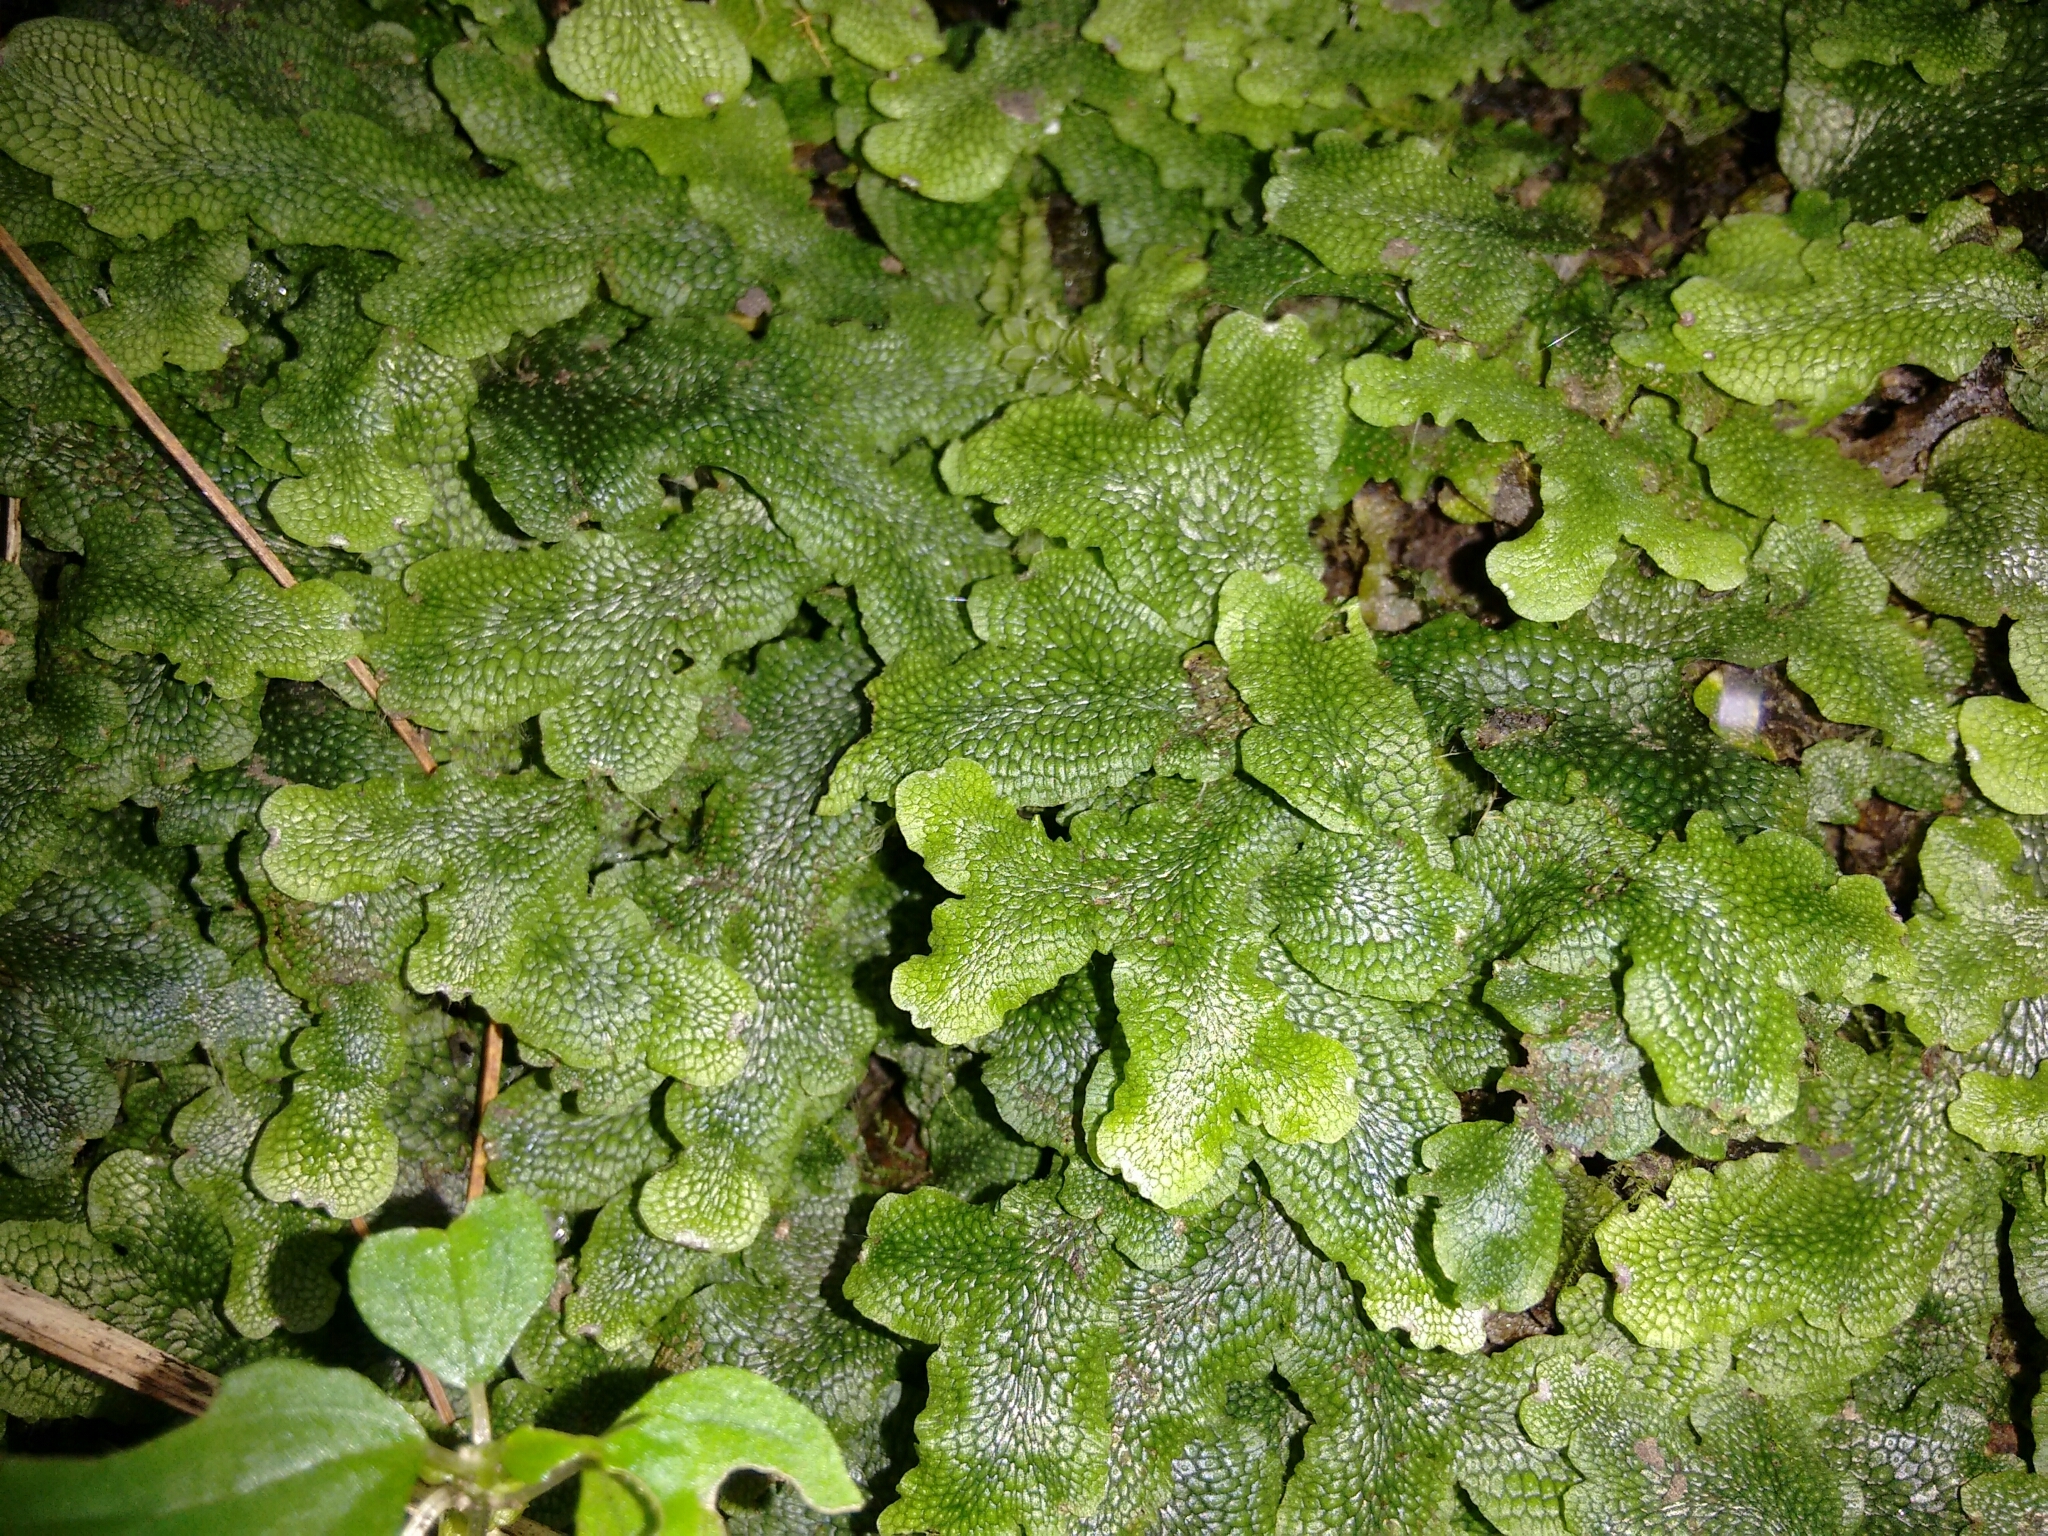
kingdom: Plantae
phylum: Marchantiophyta
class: Marchantiopsida
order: Marchantiales
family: Conocephalaceae
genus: Conocephalum
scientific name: Conocephalum salebrosum
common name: Cat-tongue liverwort
